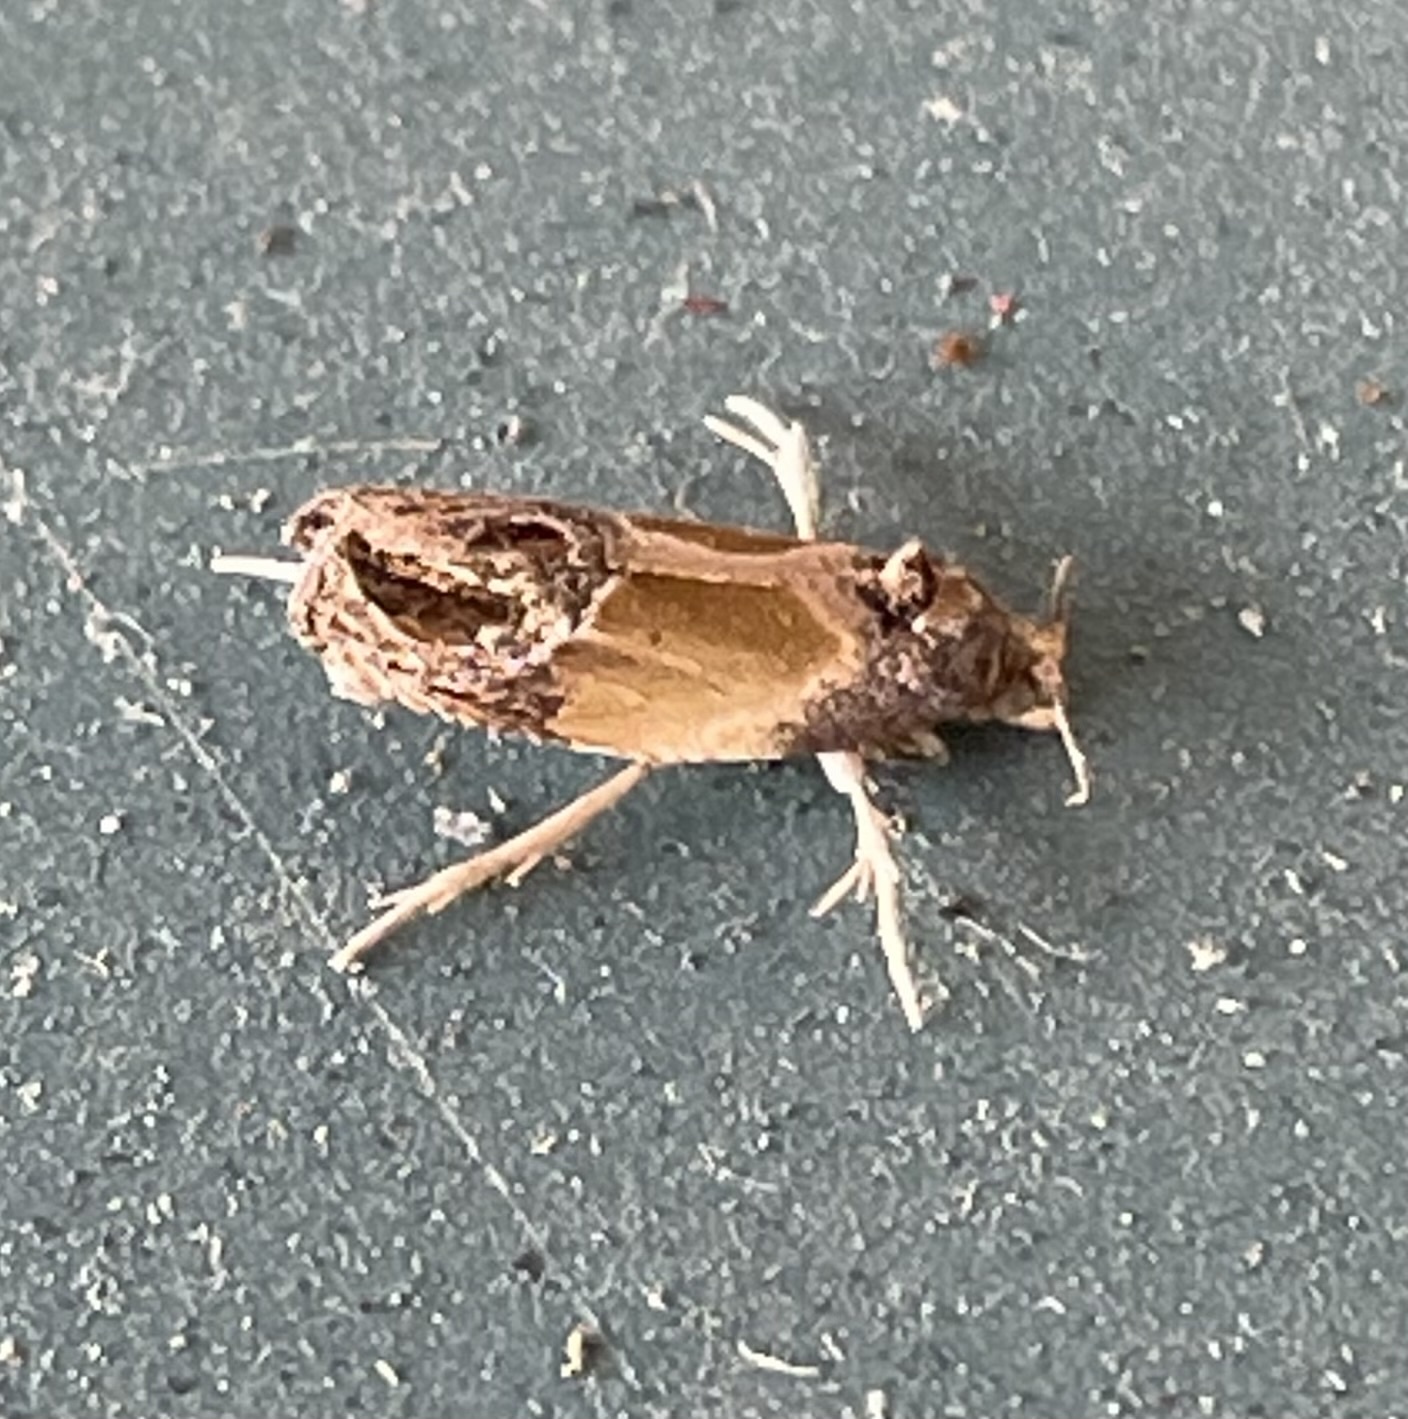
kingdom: Animalia
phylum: Arthropoda
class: Insecta
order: Lepidoptera
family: Tortricidae
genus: Eumarozia
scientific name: Eumarozia malachitana
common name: Sculptured moth
